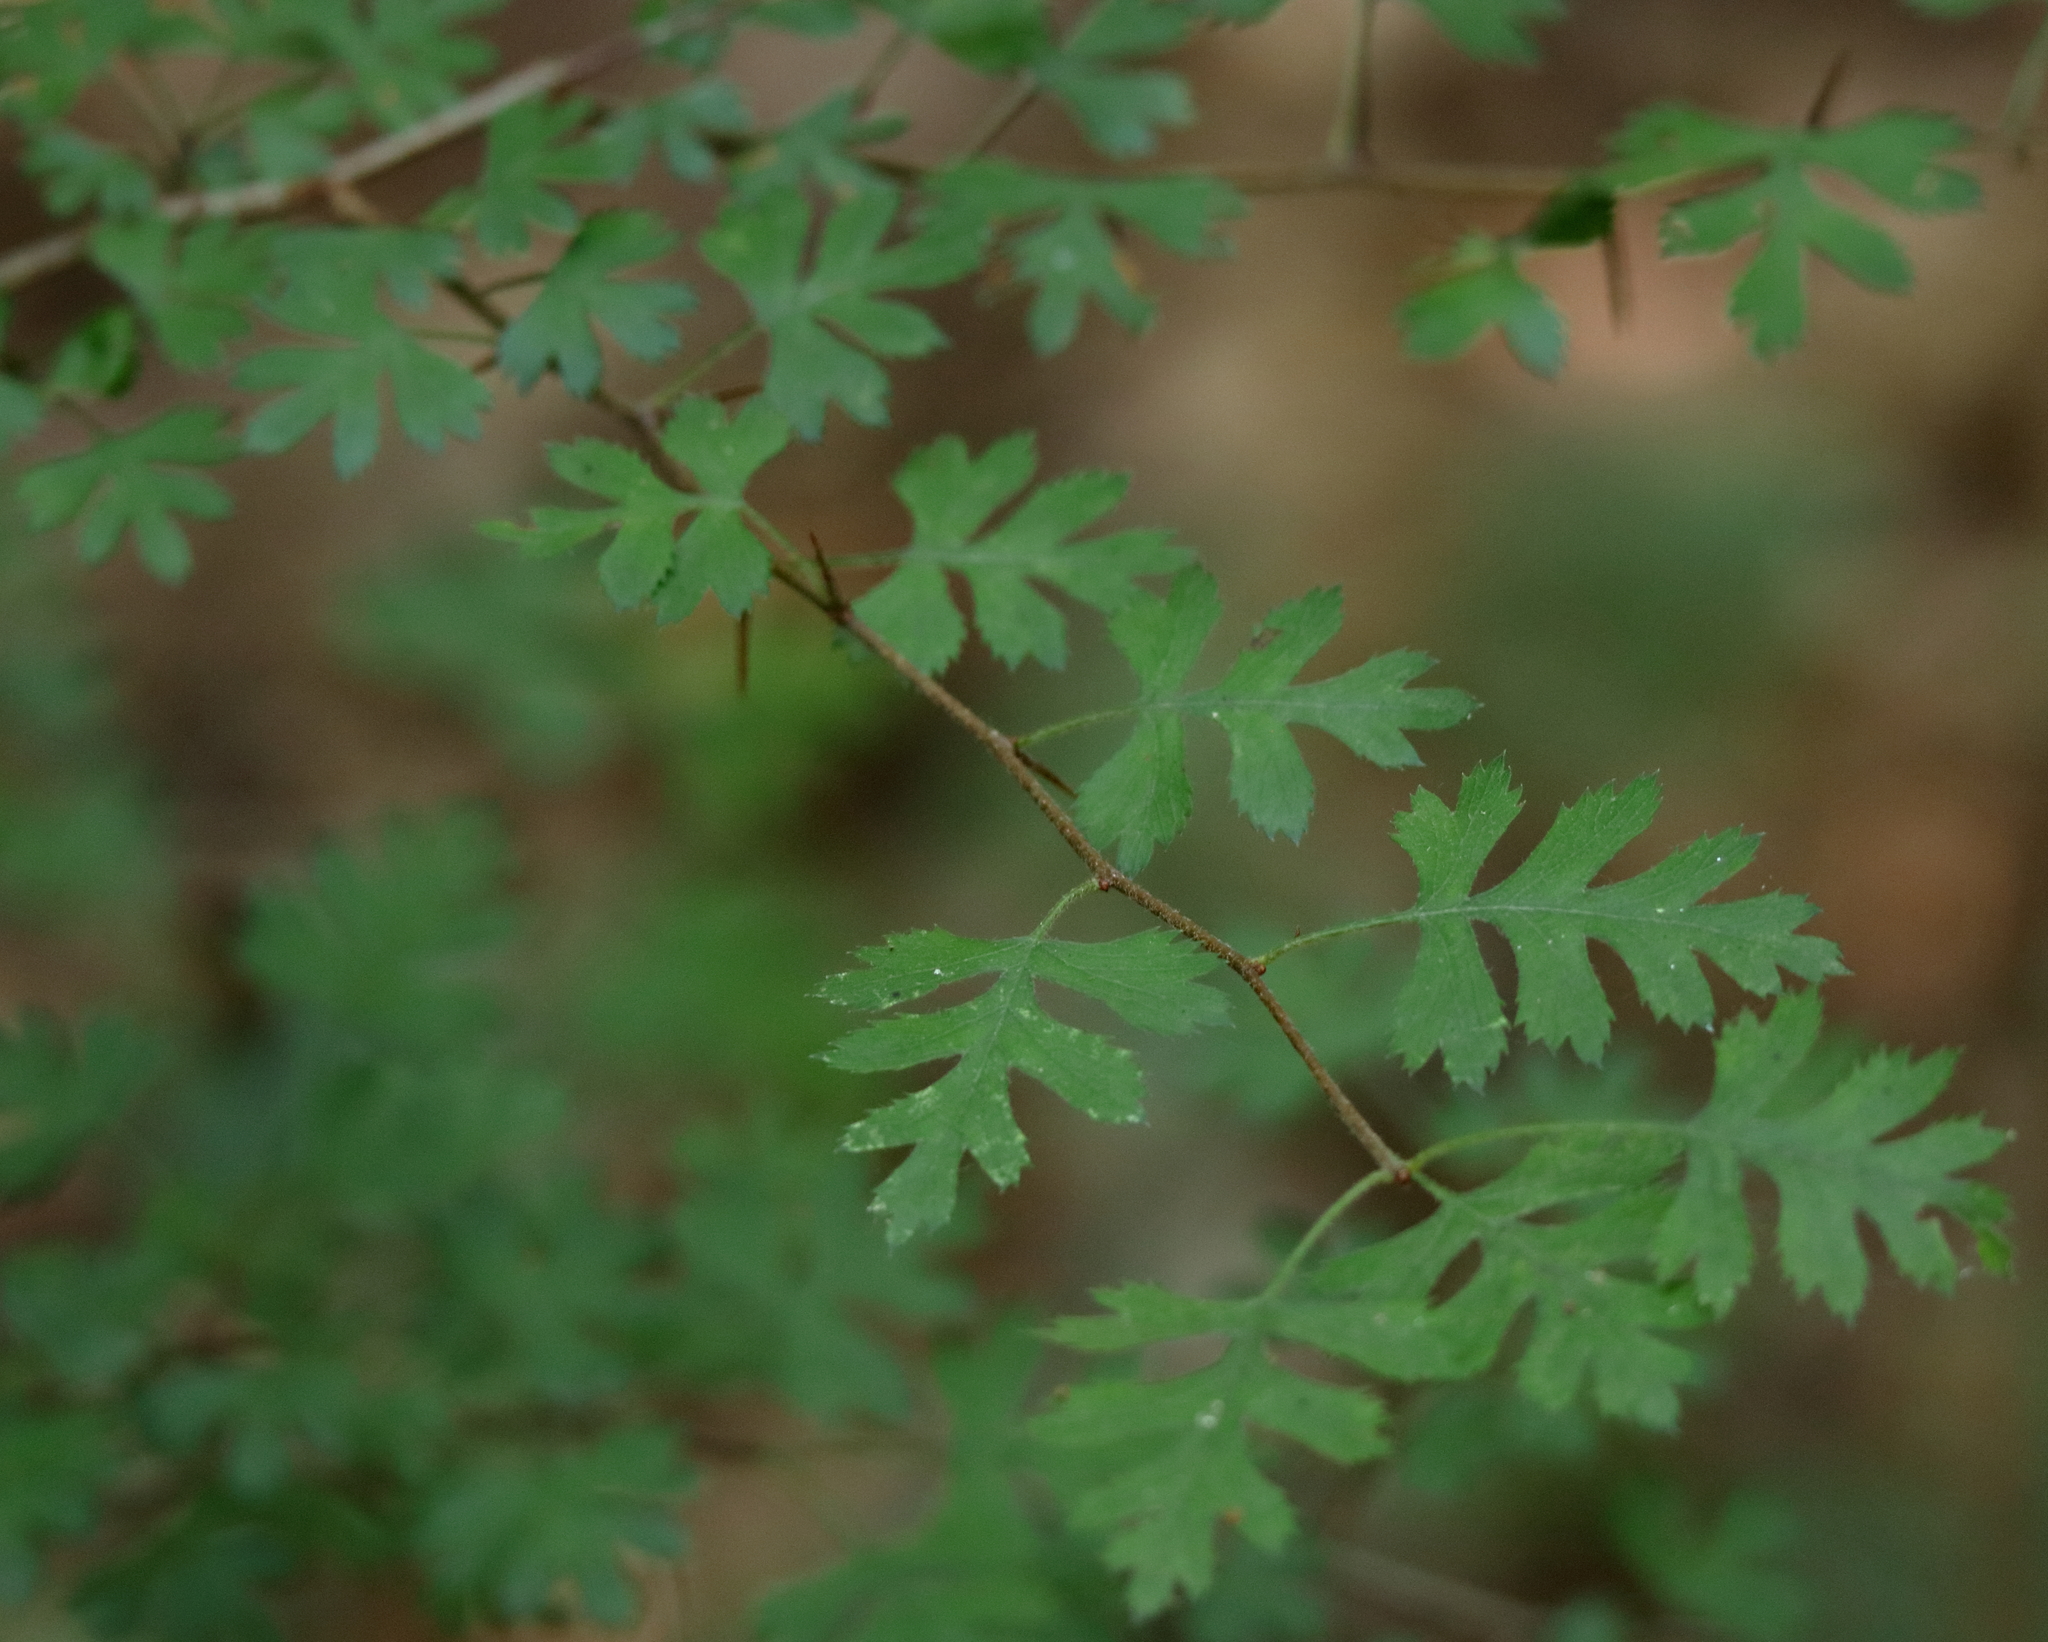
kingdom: Plantae
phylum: Tracheophyta
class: Magnoliopsida
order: Rosales
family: Rosaceae
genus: Crataegus
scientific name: Crataegus marshallii
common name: Parsley-hawthorn
